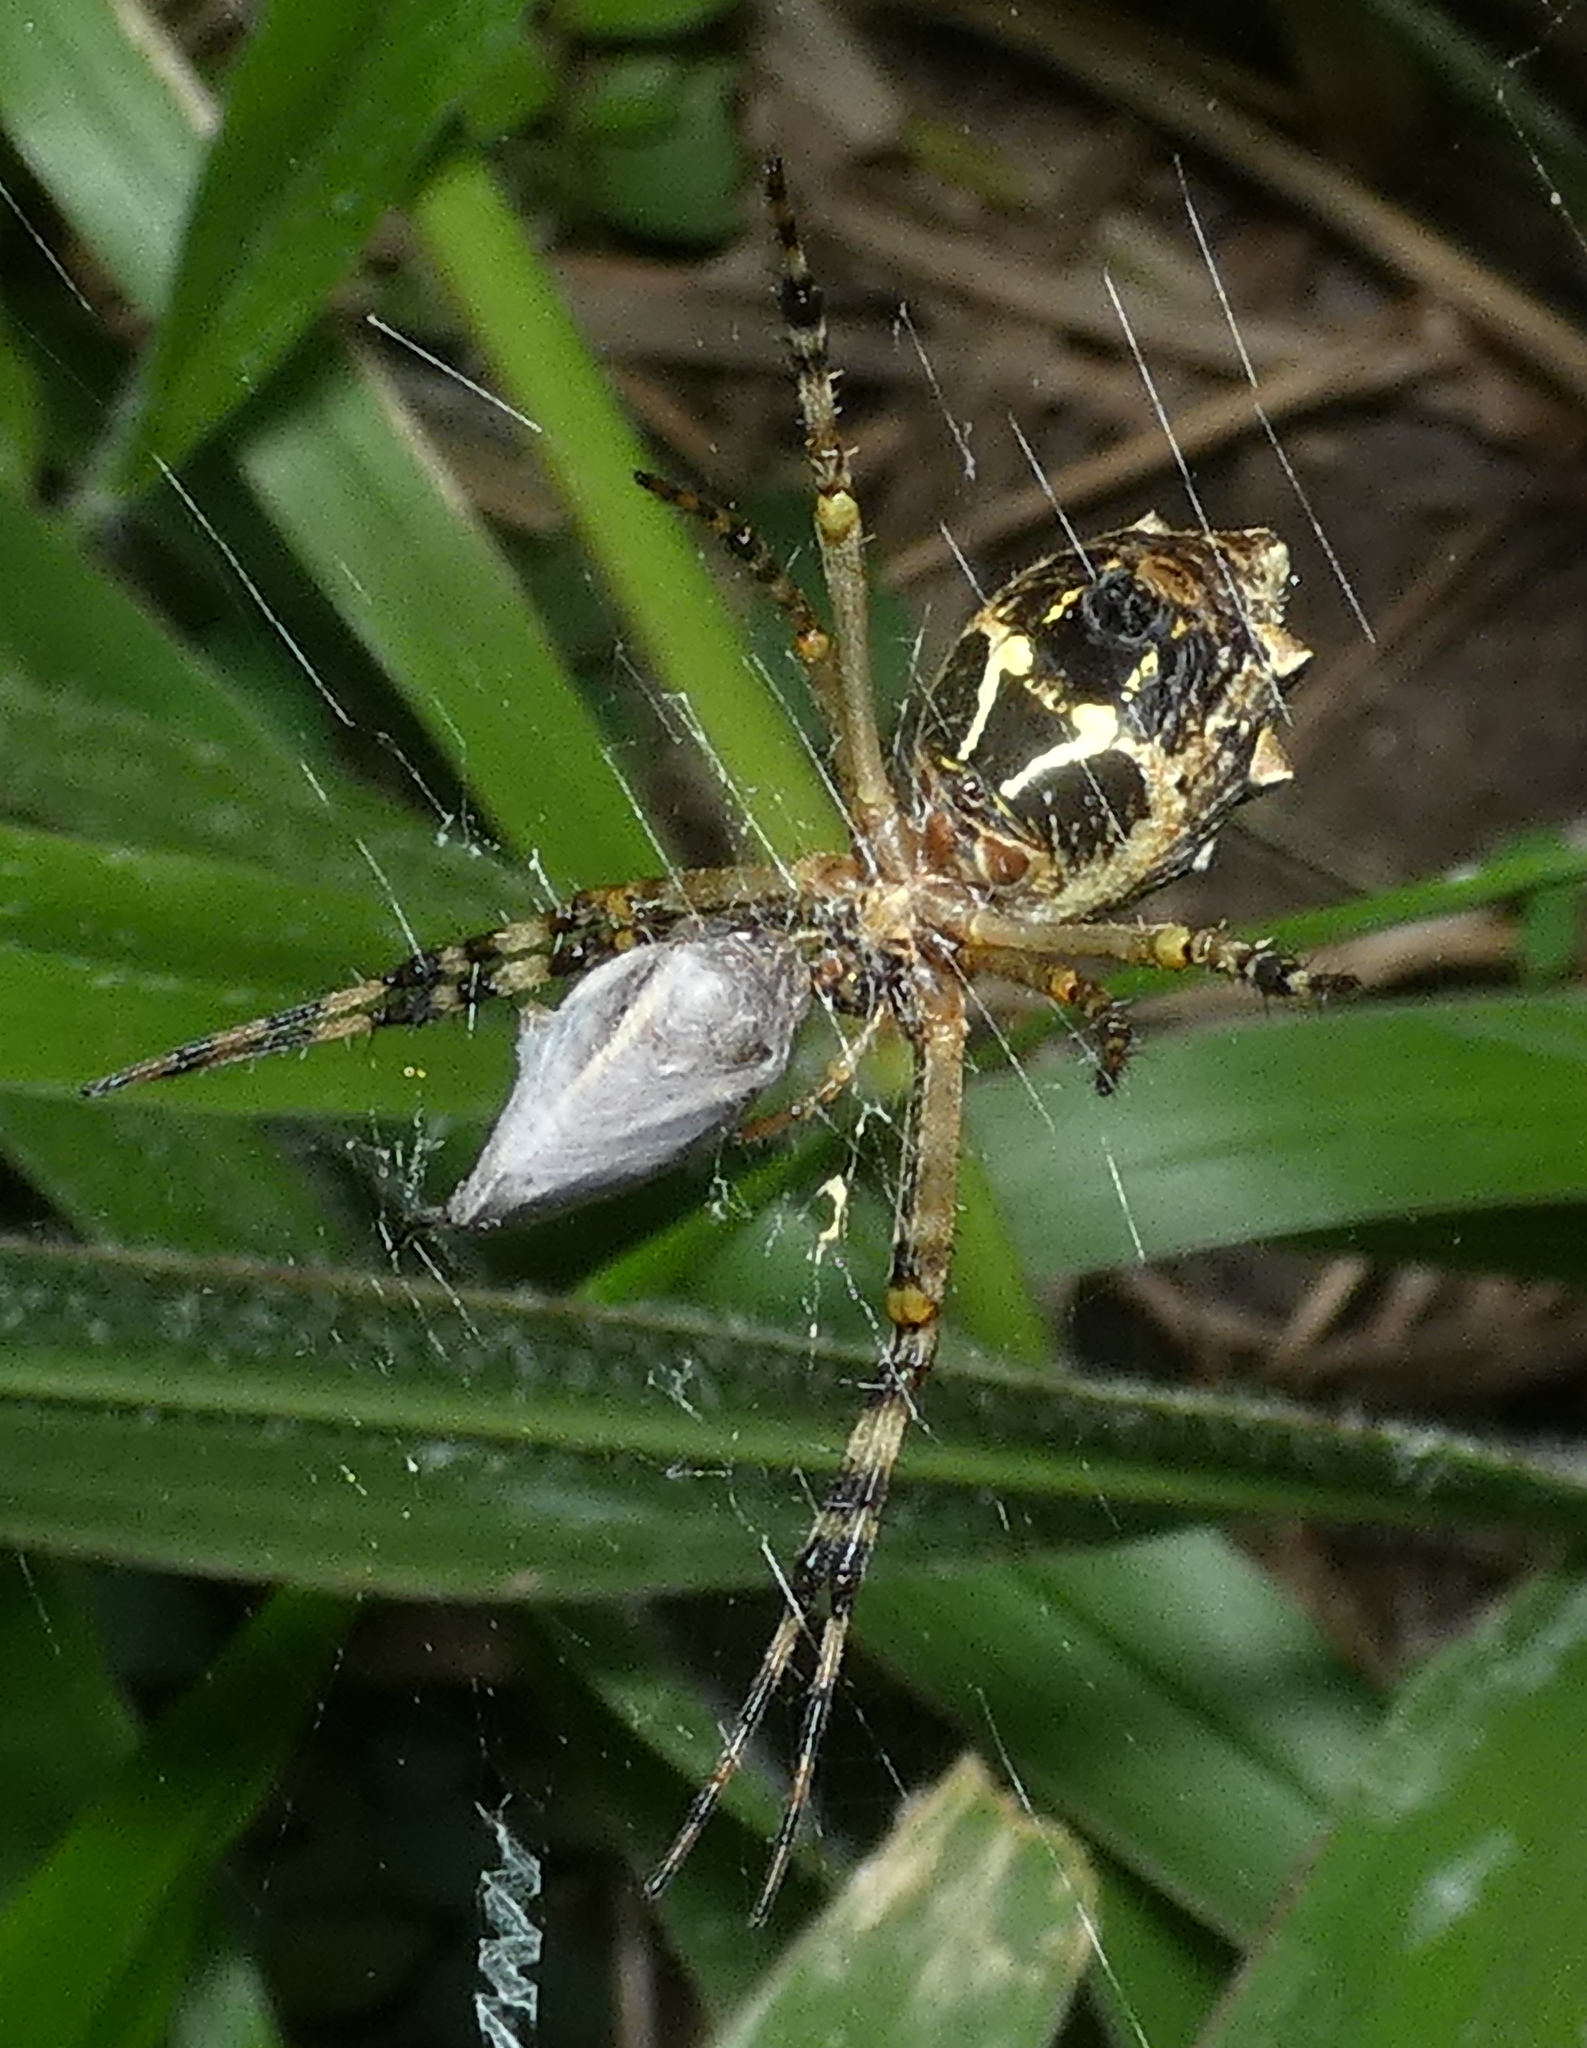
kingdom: Animalia
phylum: Arthropoda
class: Arachnida
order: Araneae
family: Araneidae
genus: Argiope
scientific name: Argiope argentata
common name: Orb weavers
